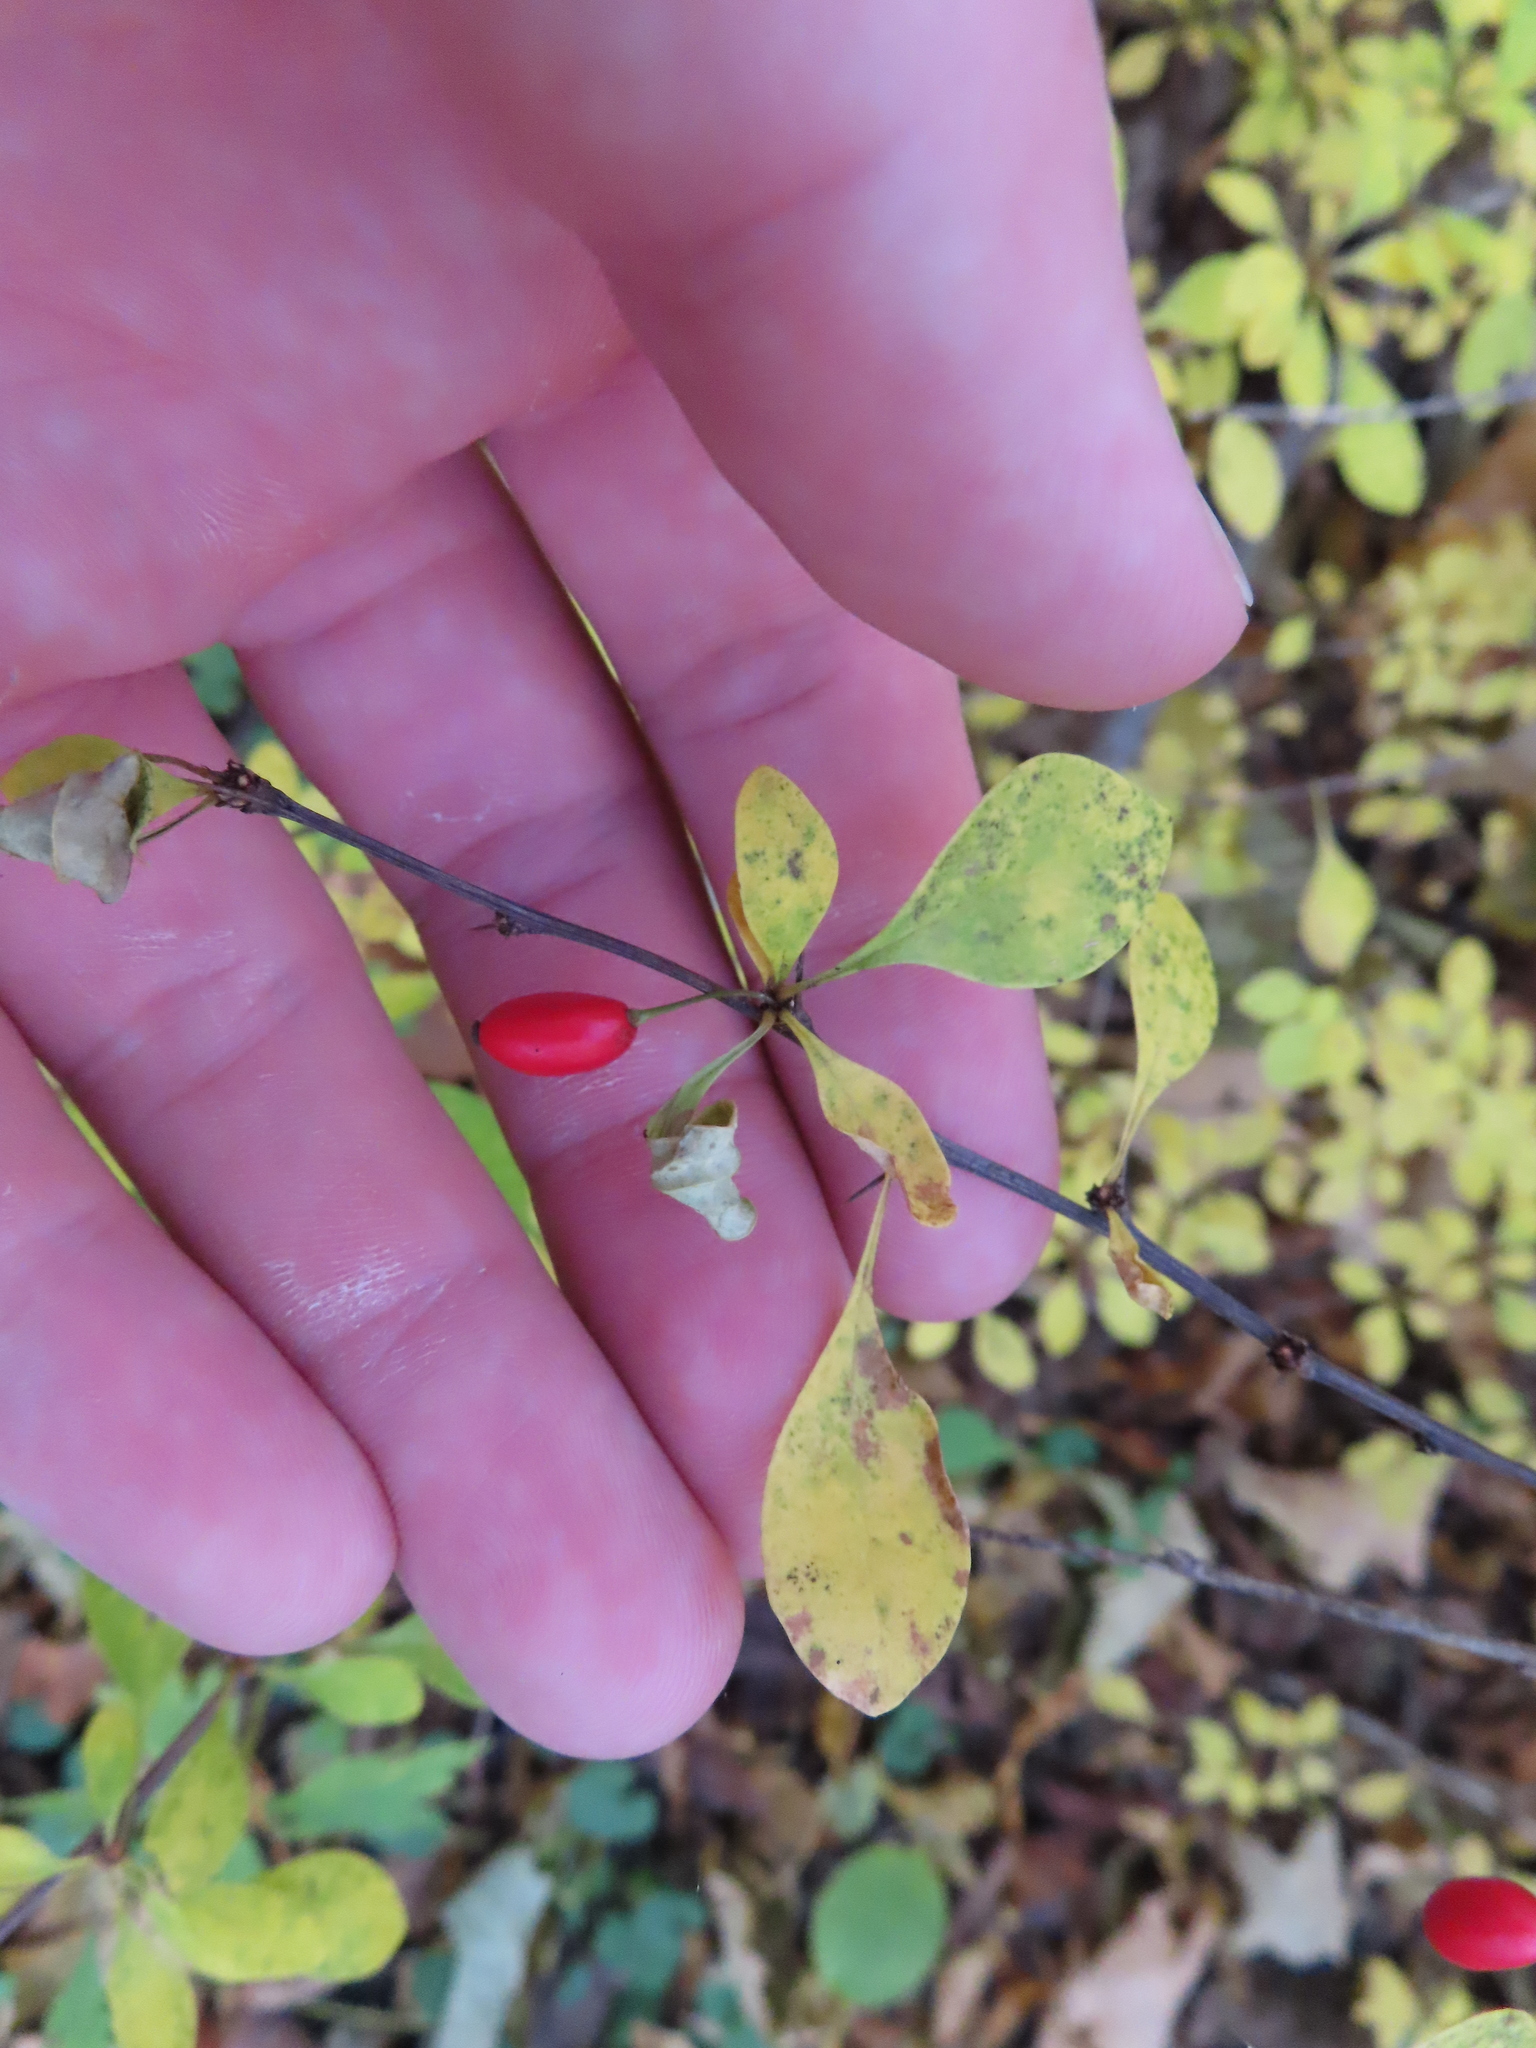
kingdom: Plantae
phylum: Tracheophyta
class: Magnoliopsida
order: Ranunculales
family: Berberidaceae
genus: Berberis
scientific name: Berberis thunbergii
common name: Japanese barberry
